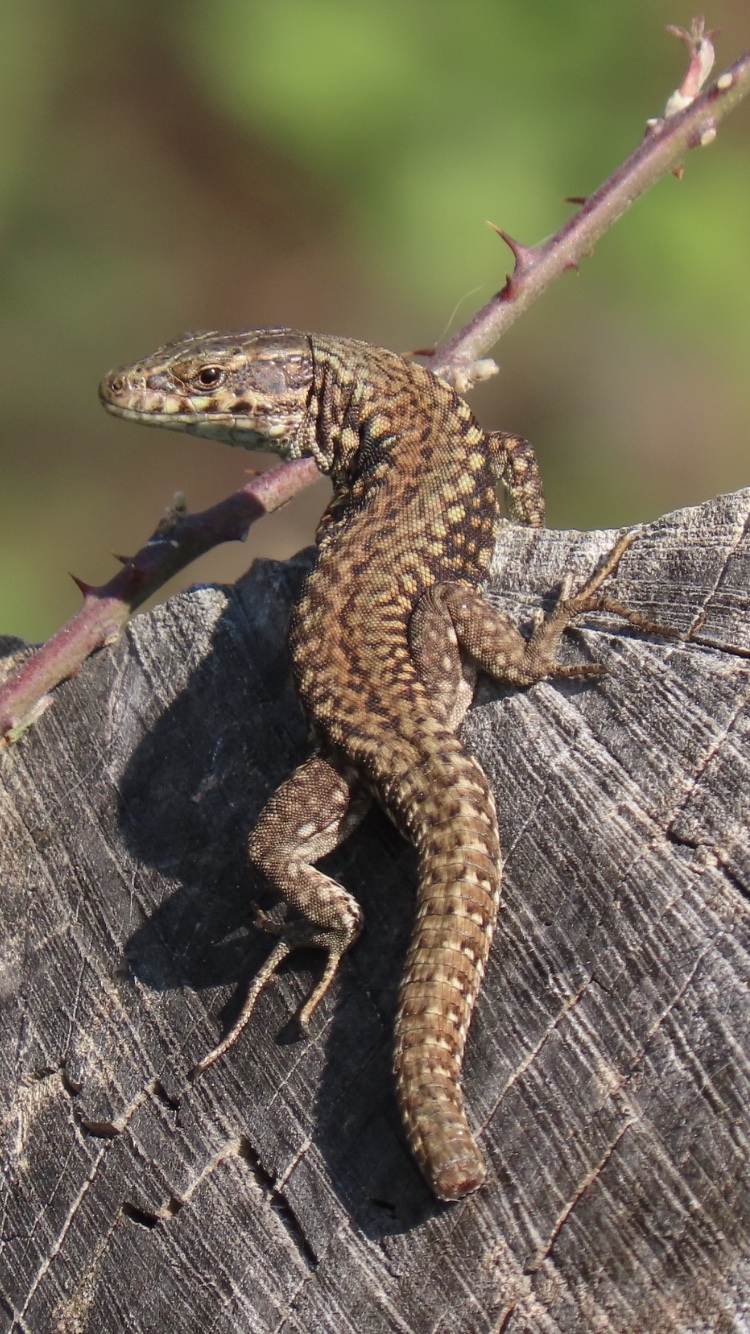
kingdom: Animalia
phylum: Chordata
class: Squamata
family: Lacertidae
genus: Podarcis
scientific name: Podarcis muralis
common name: Common wall lizard
